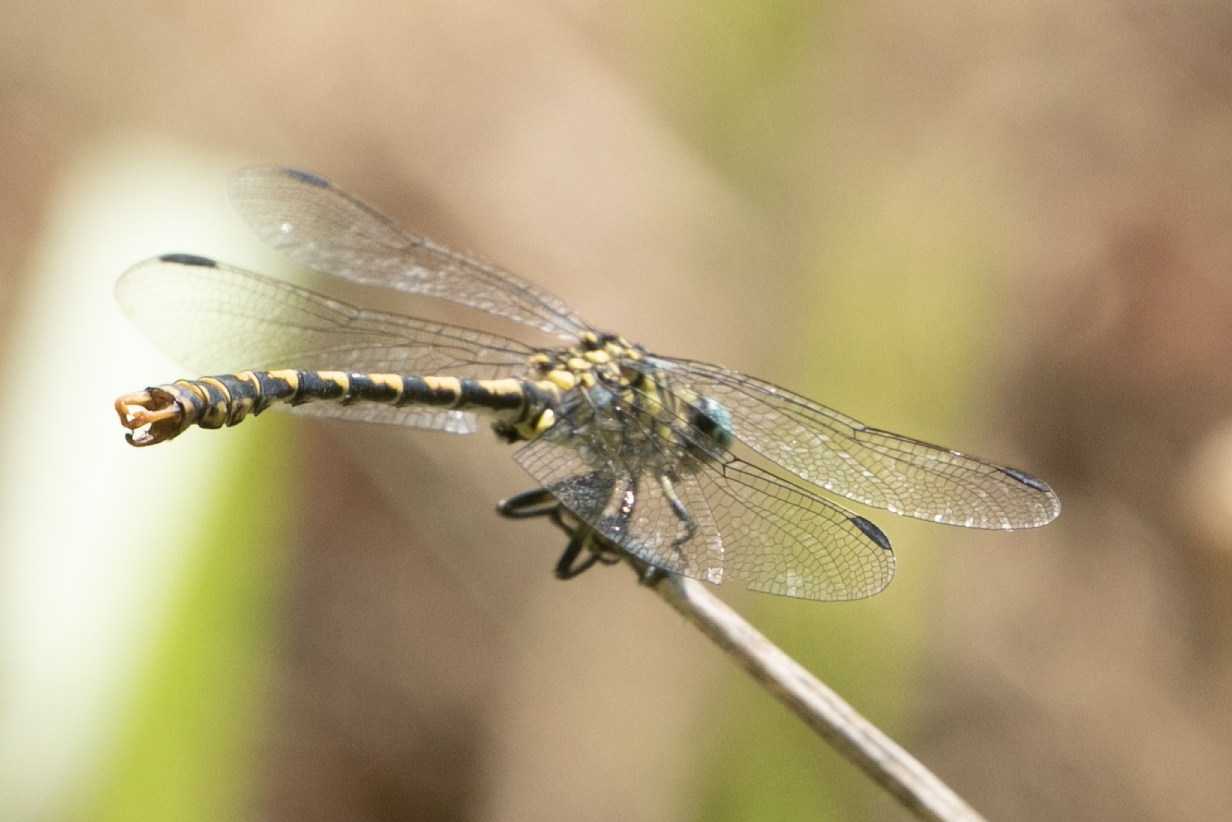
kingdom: Animalia
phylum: Arthropoda
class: Insecta
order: Odonata
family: Gomphidae
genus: Onychogomphus
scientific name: Onychogomphus forcipatus
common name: Small pincertail
